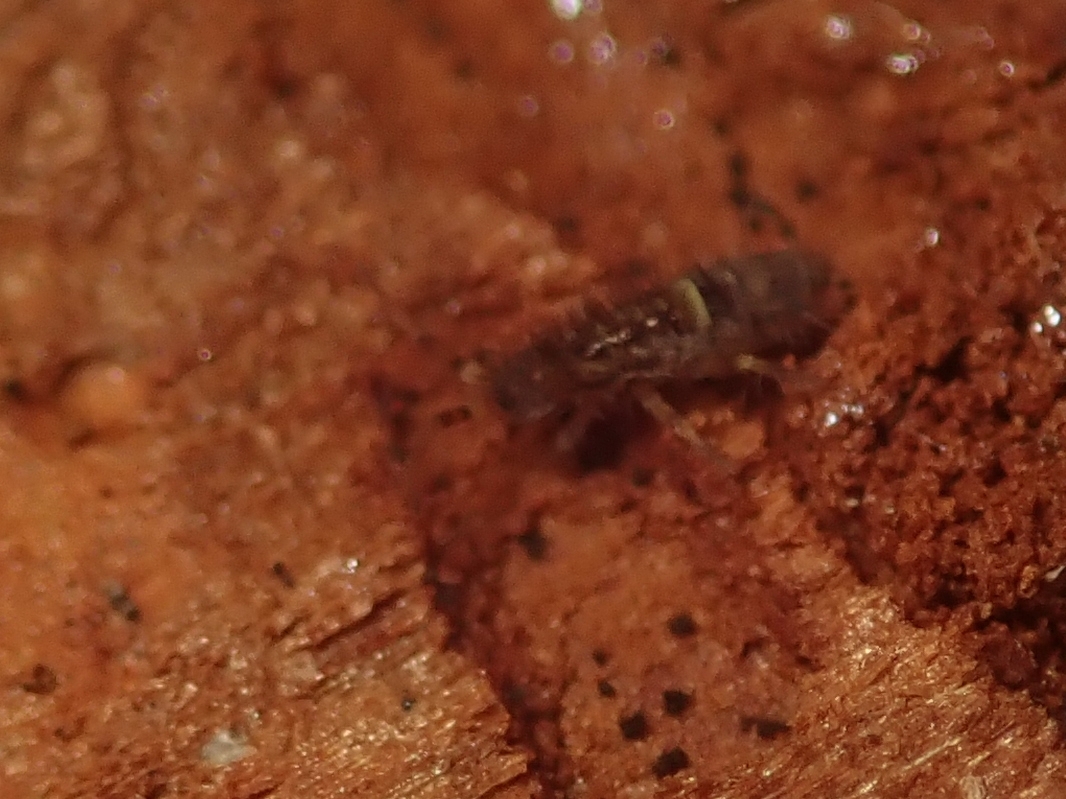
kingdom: Animalia
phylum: Arthropoda
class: Collembola
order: Entomobryomorpha
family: Orchesellidae
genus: Orchesella
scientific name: Orchesella cincta
